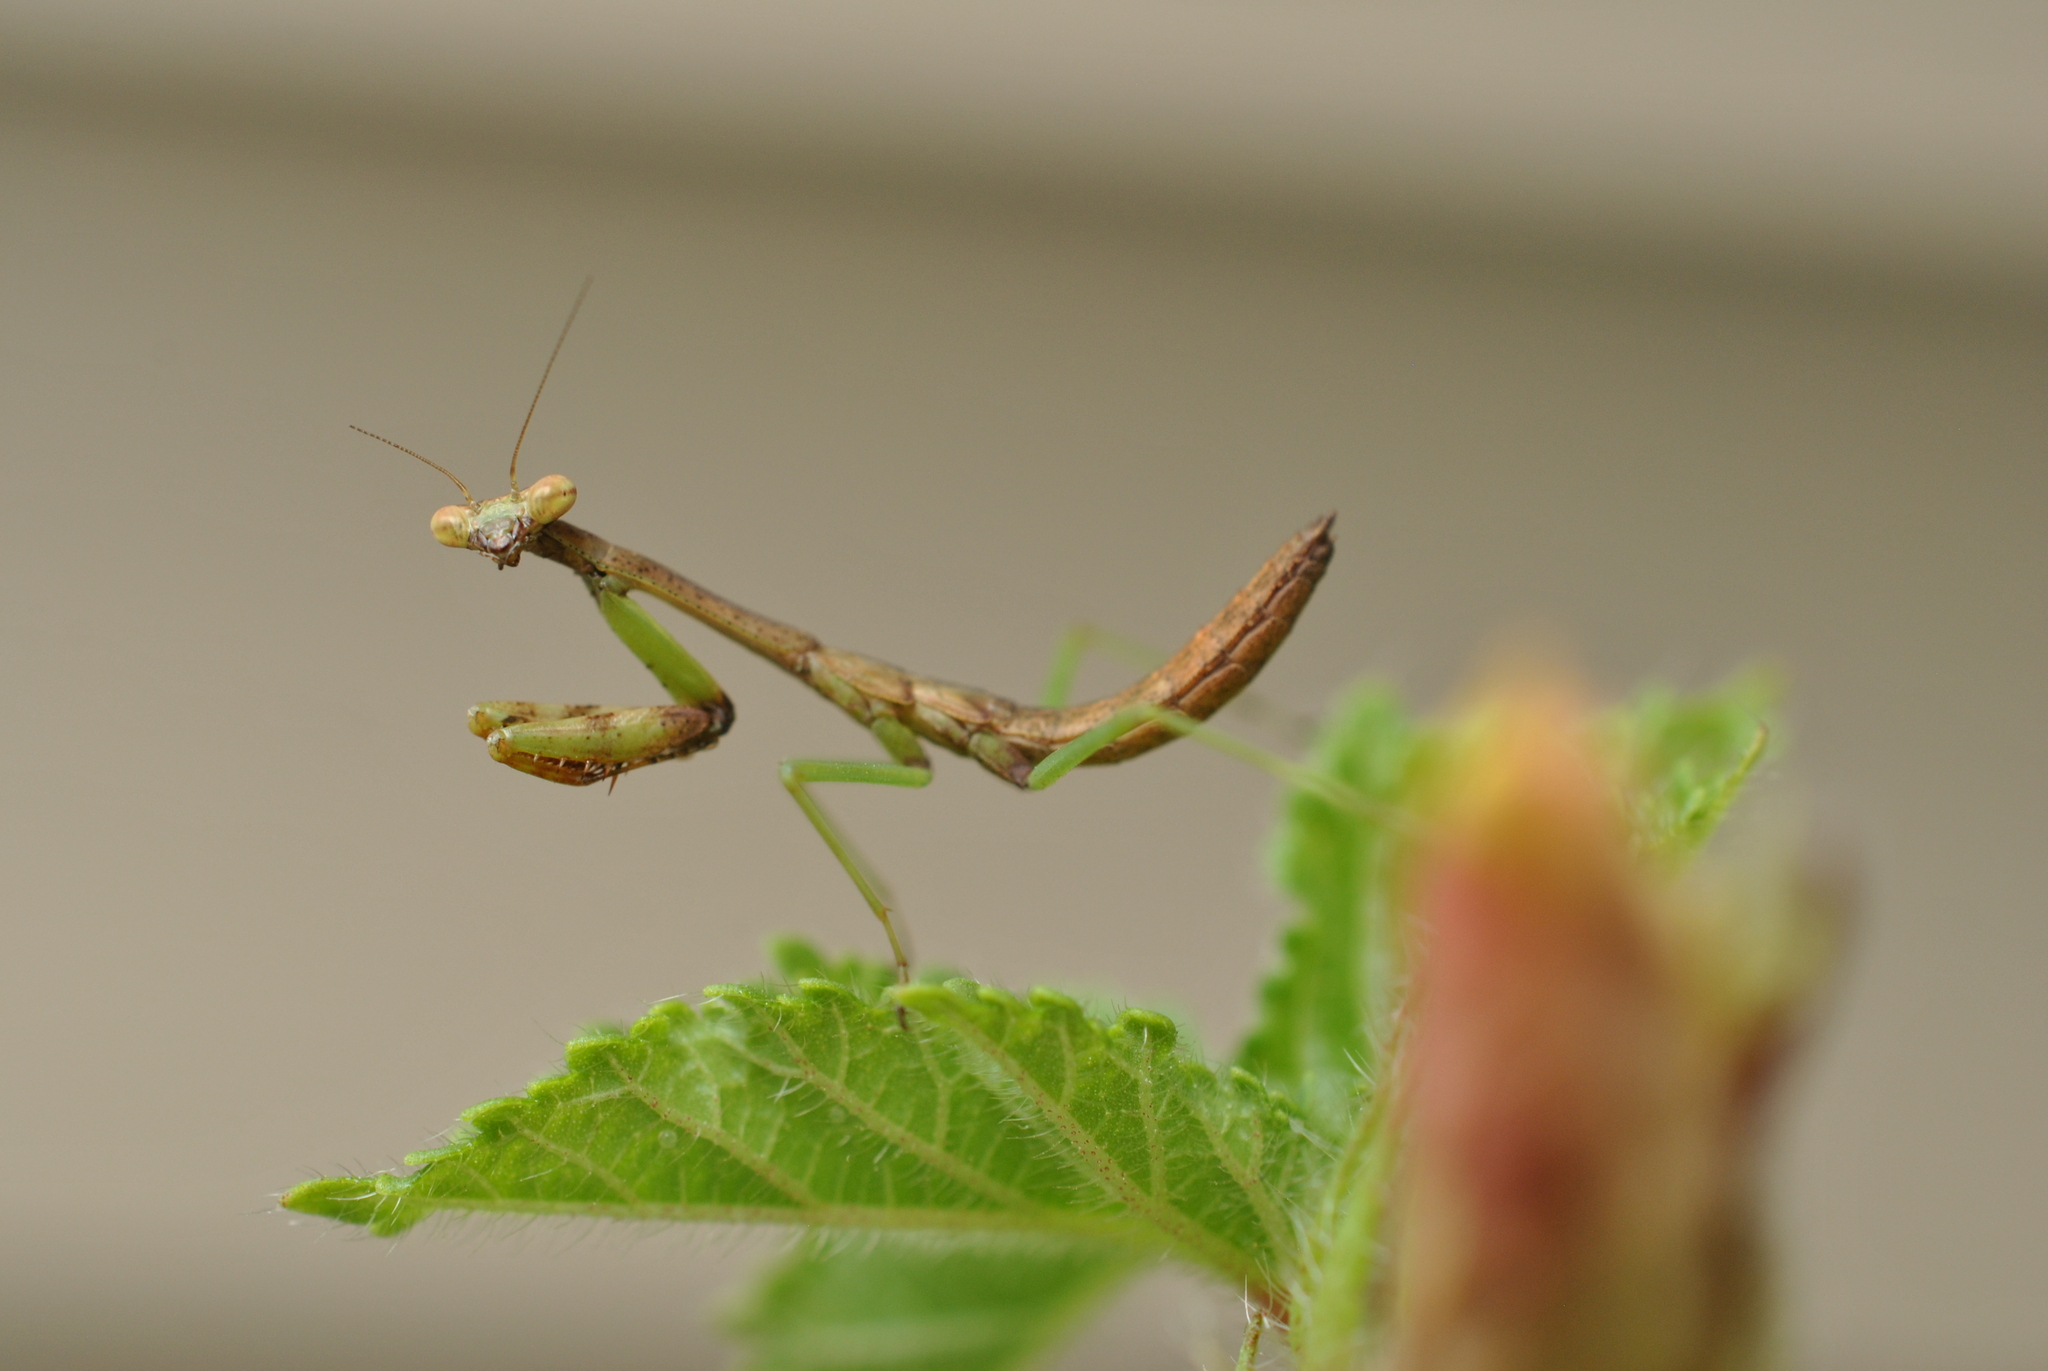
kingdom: Animalia
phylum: Arthropoda
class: Insecta
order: Mantodea
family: Mantidae
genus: Stagmomantis
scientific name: Stagmomantis carolina
